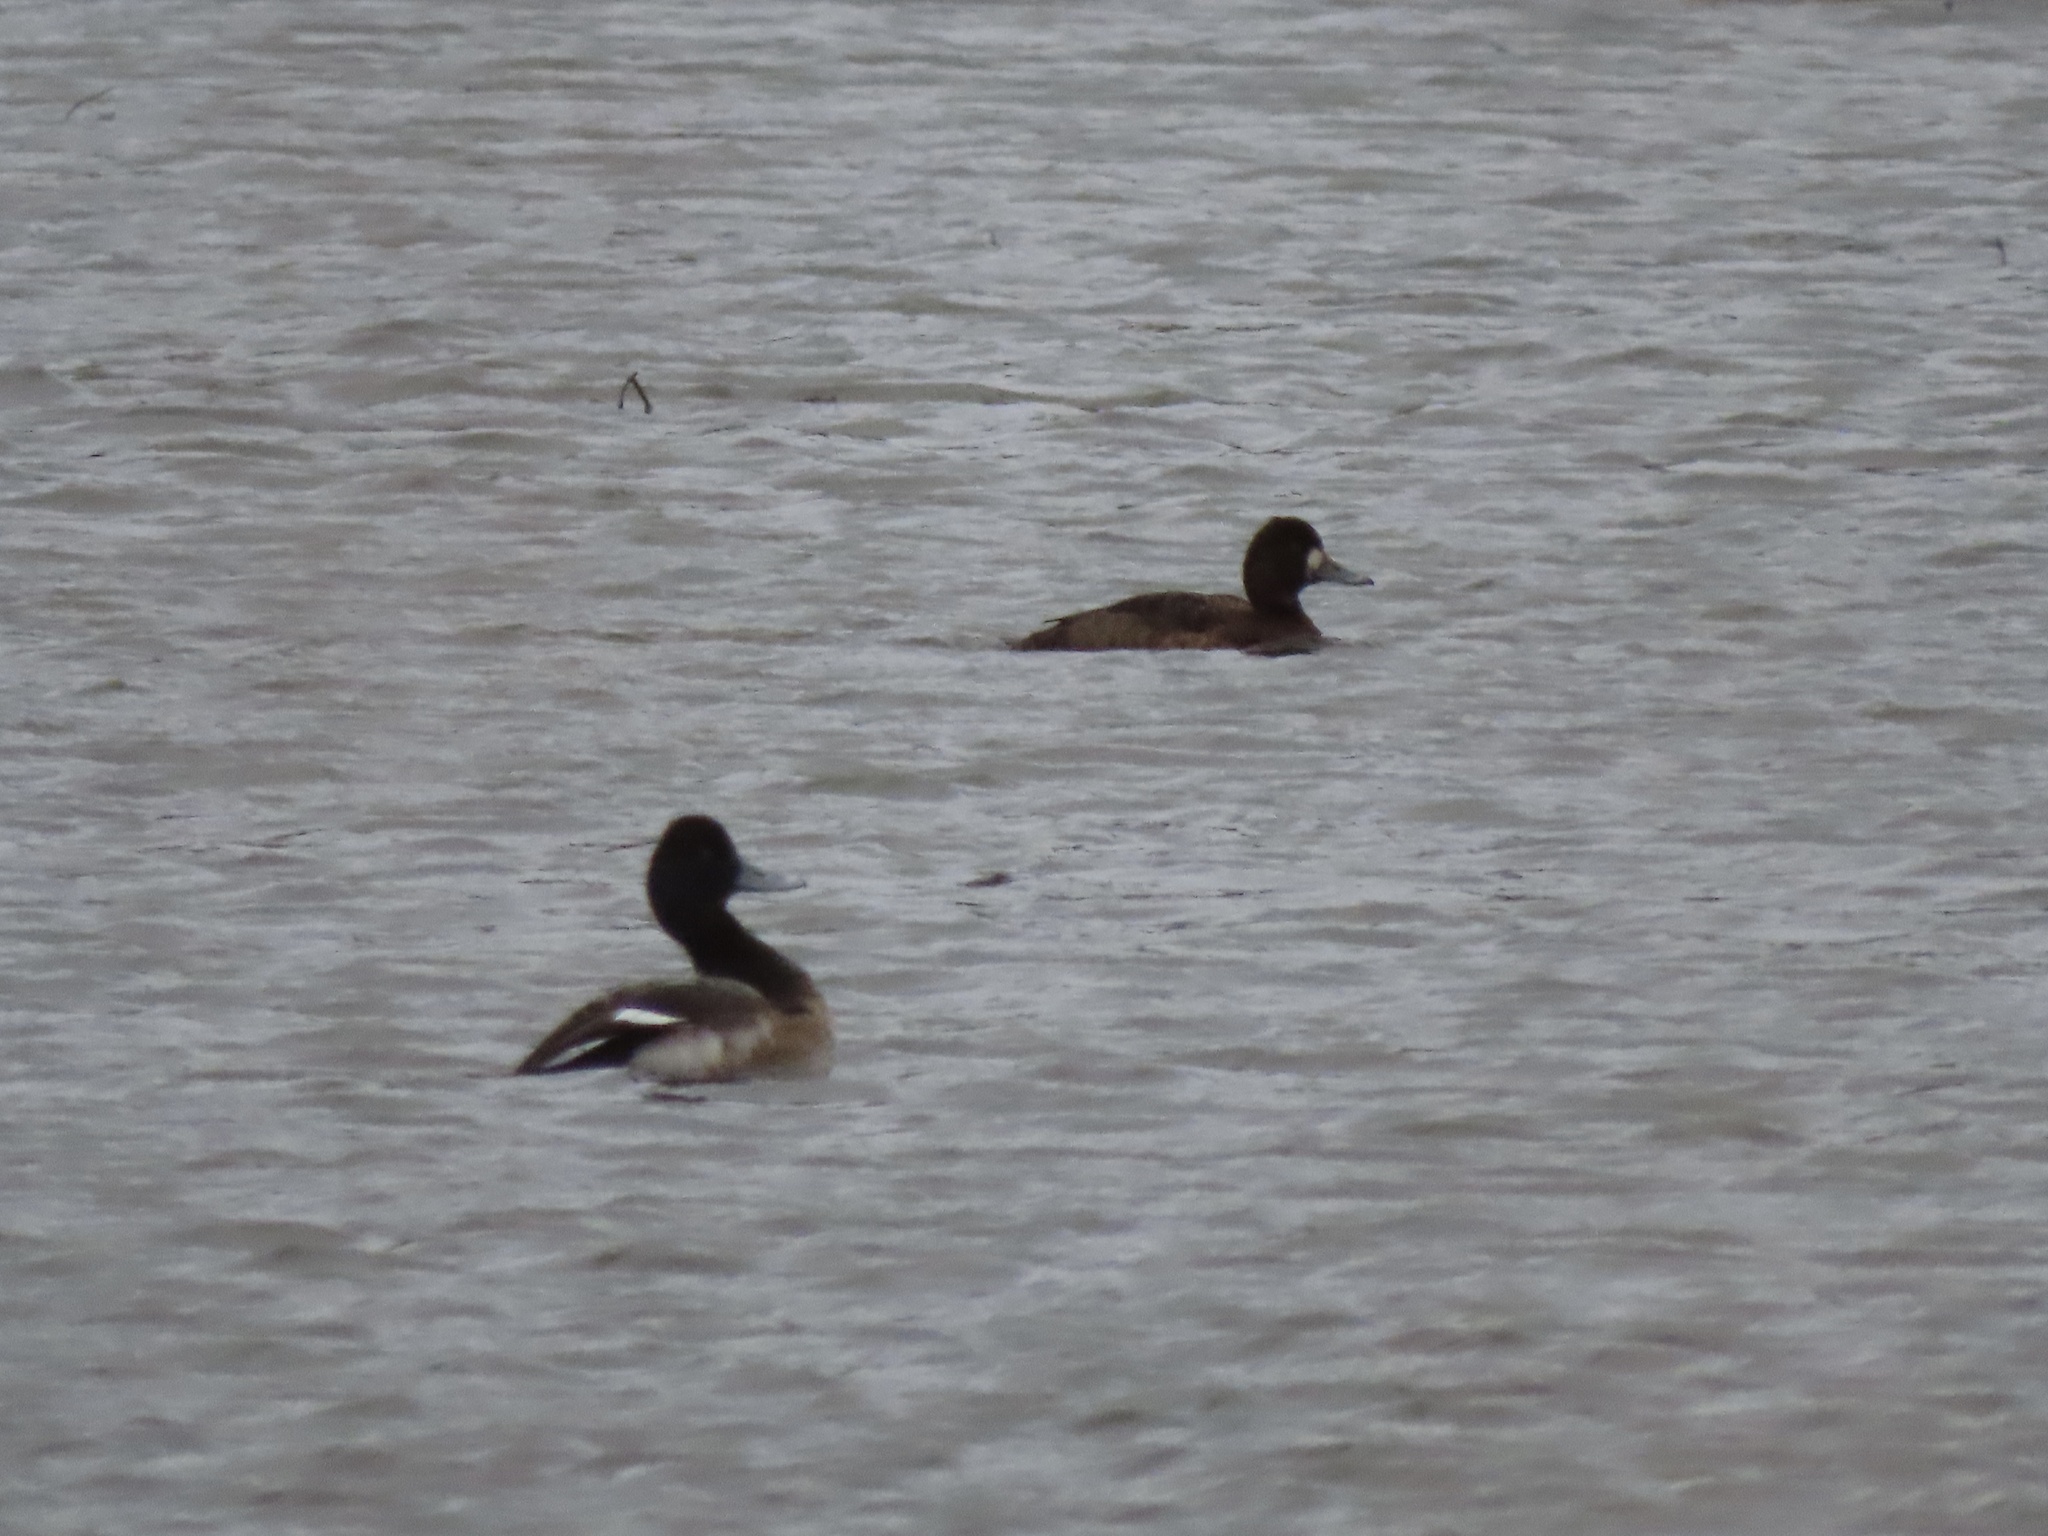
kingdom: Animalia
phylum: Chordata
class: Aves
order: Anseriformes
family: Anatidae
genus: Aythya
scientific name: Aythya affinis
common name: Lesser scaup
